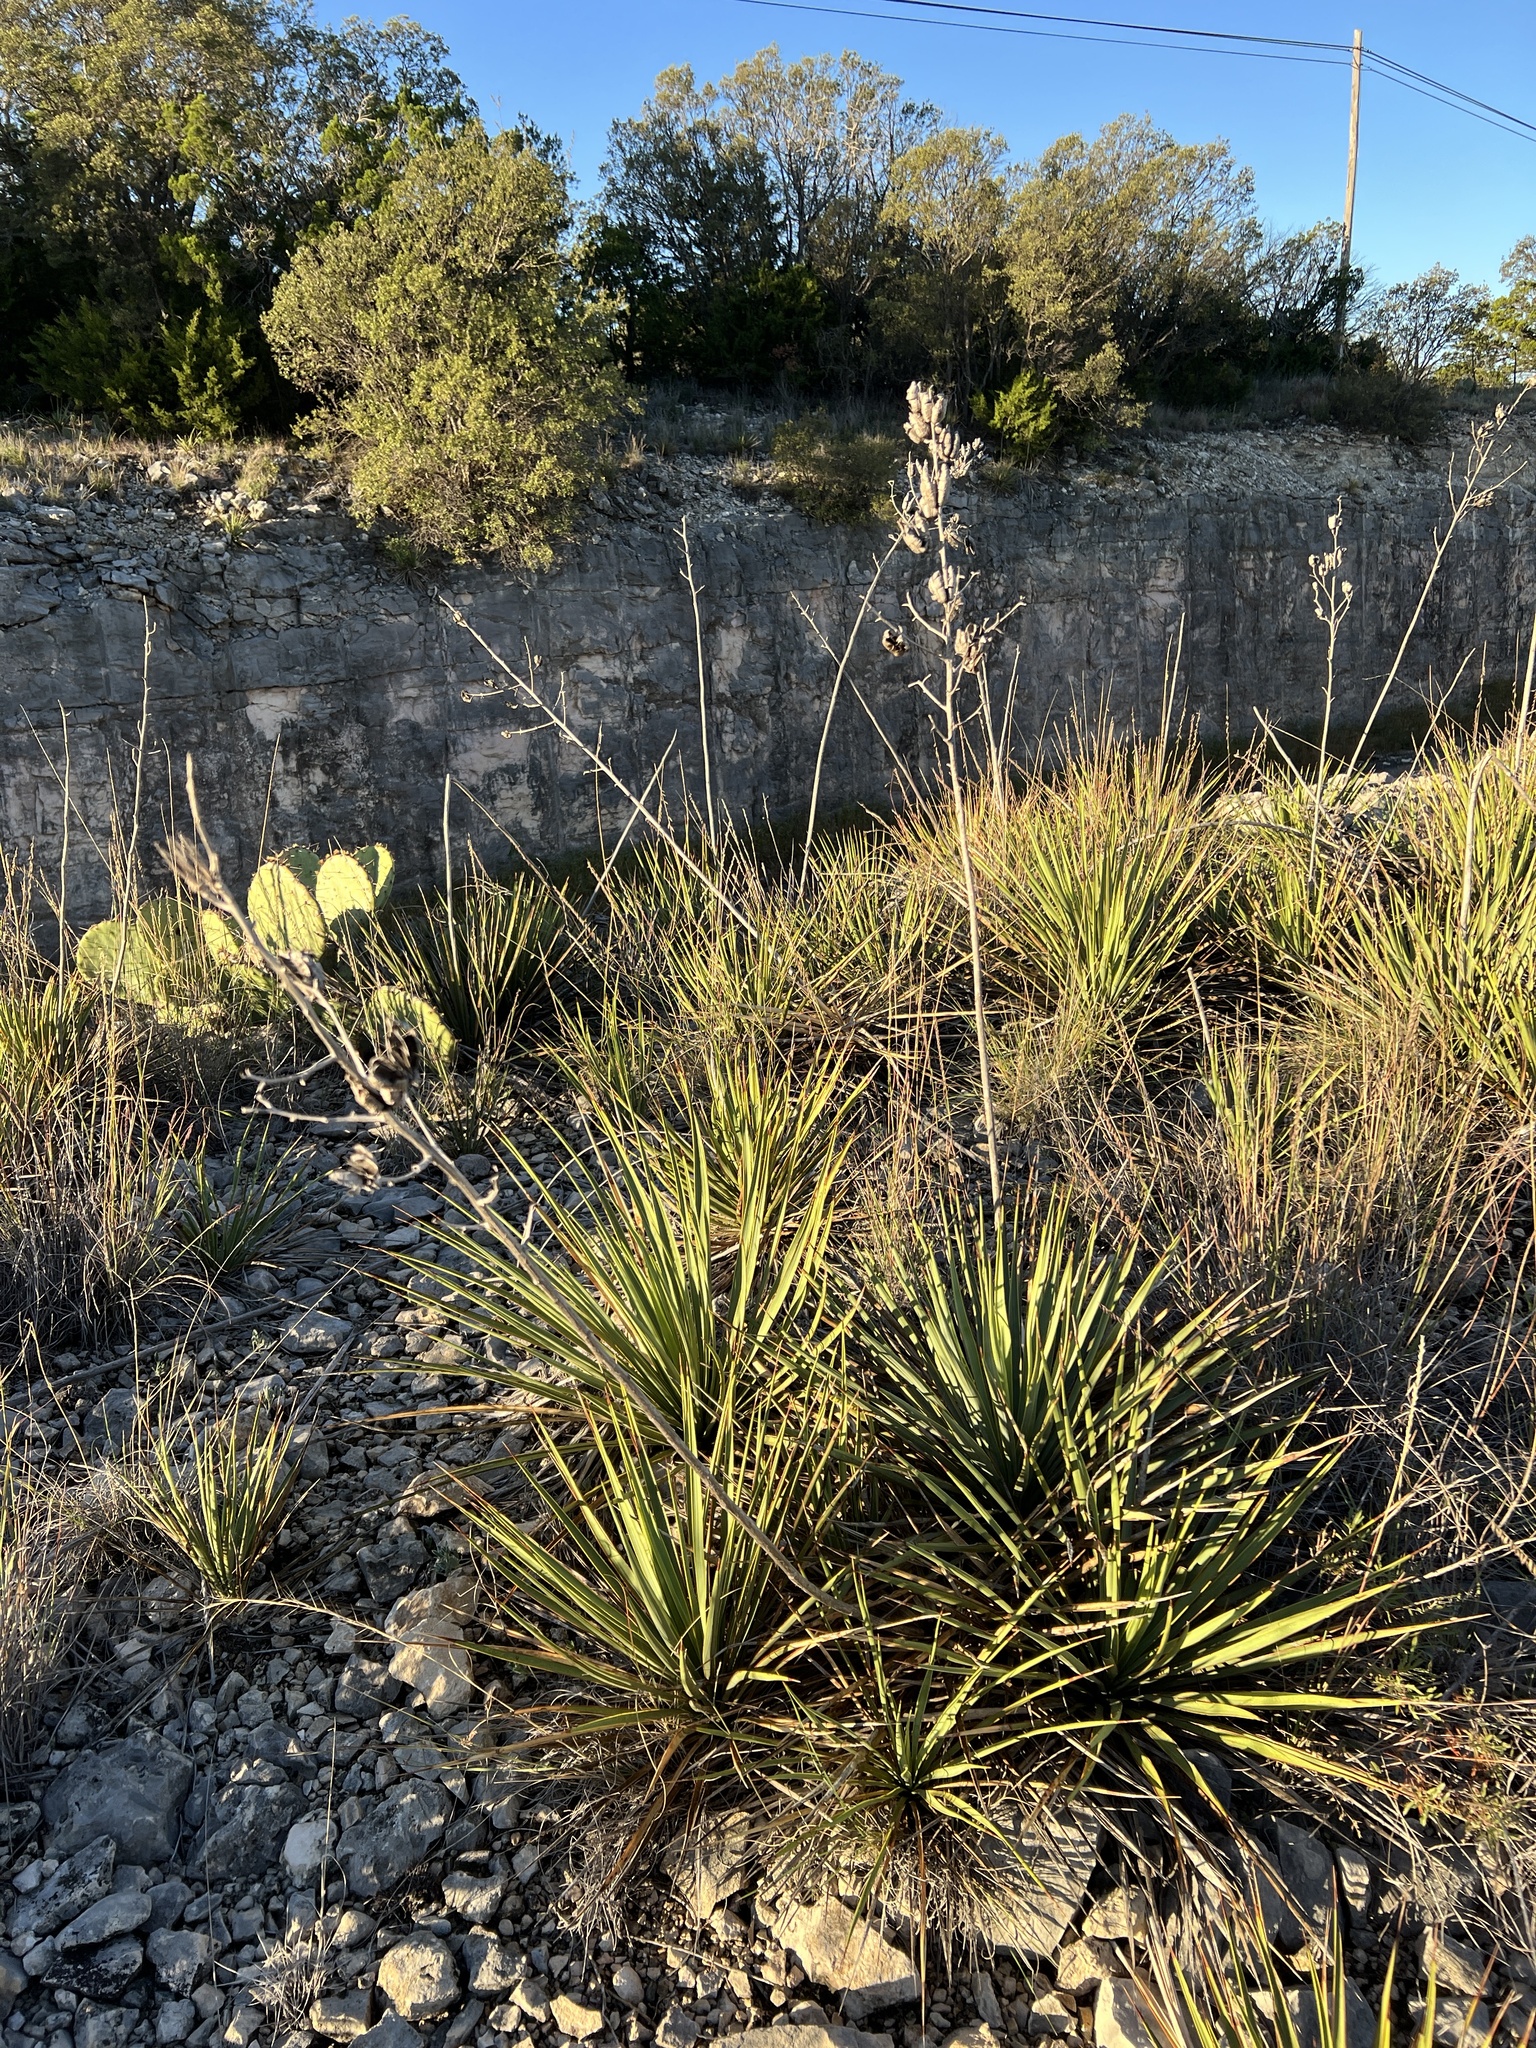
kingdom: Plantae
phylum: Tracheophyta
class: Liliopsida
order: Asparagales
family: Asparagaceae
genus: Yucca
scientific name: Yucca reverchonii
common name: San angelo yucca
